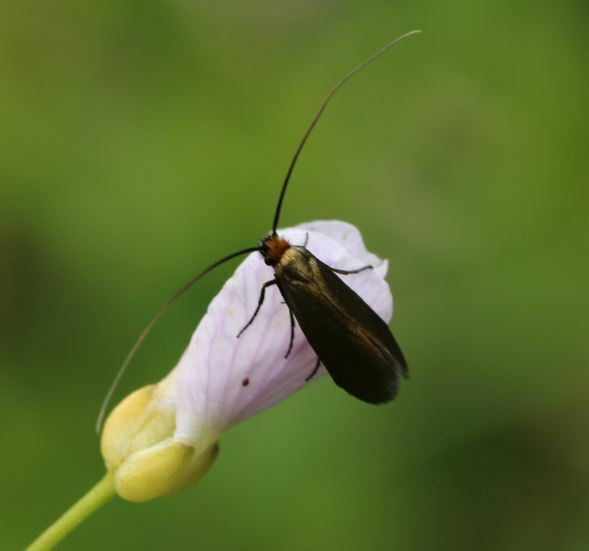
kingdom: Animalia
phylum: Arthropoda
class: Insecta
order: Lepidoptera
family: Adelidae
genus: Cauchas
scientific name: Cauchas rufimitrella
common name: Meadow long-horn
